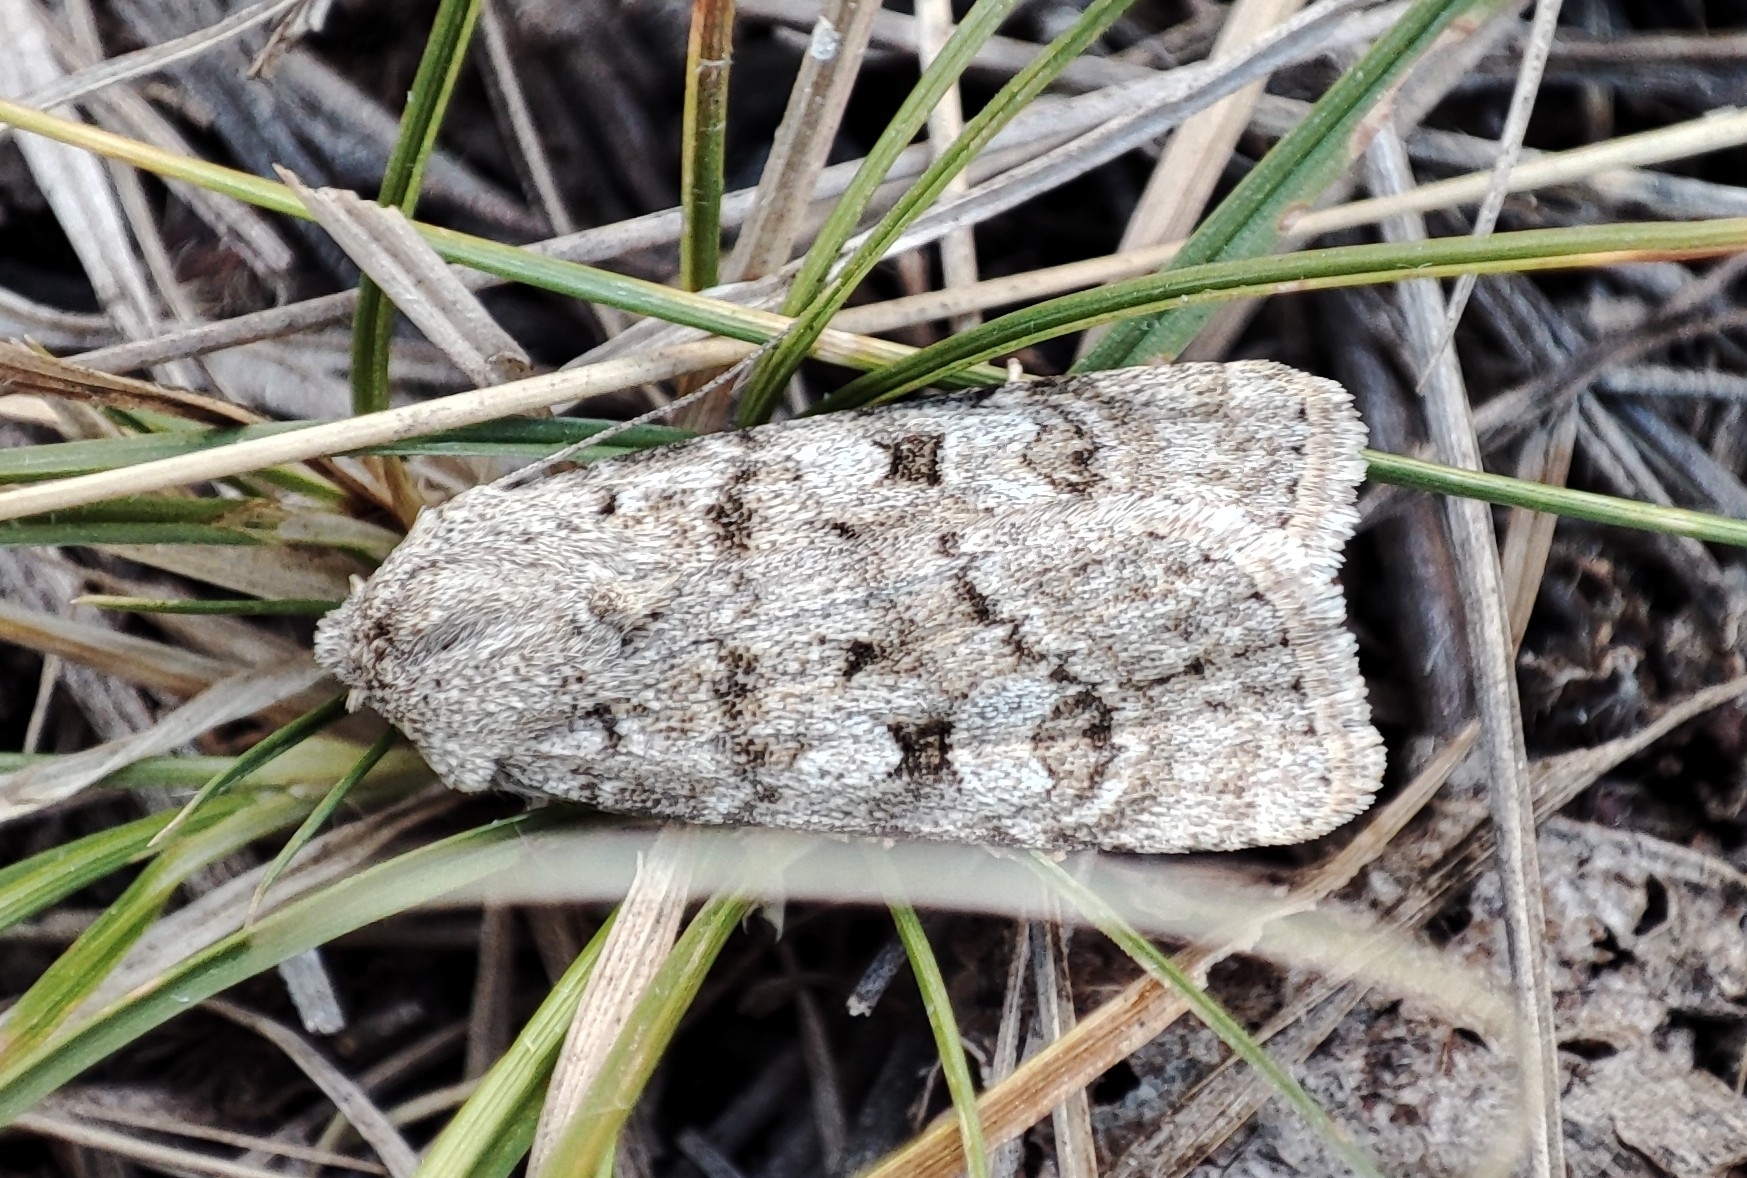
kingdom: Animalia
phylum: Arthropoda
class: Insecta
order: Lepidoptera
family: Noctuidae
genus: Euxoa
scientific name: Euxoa deserta
